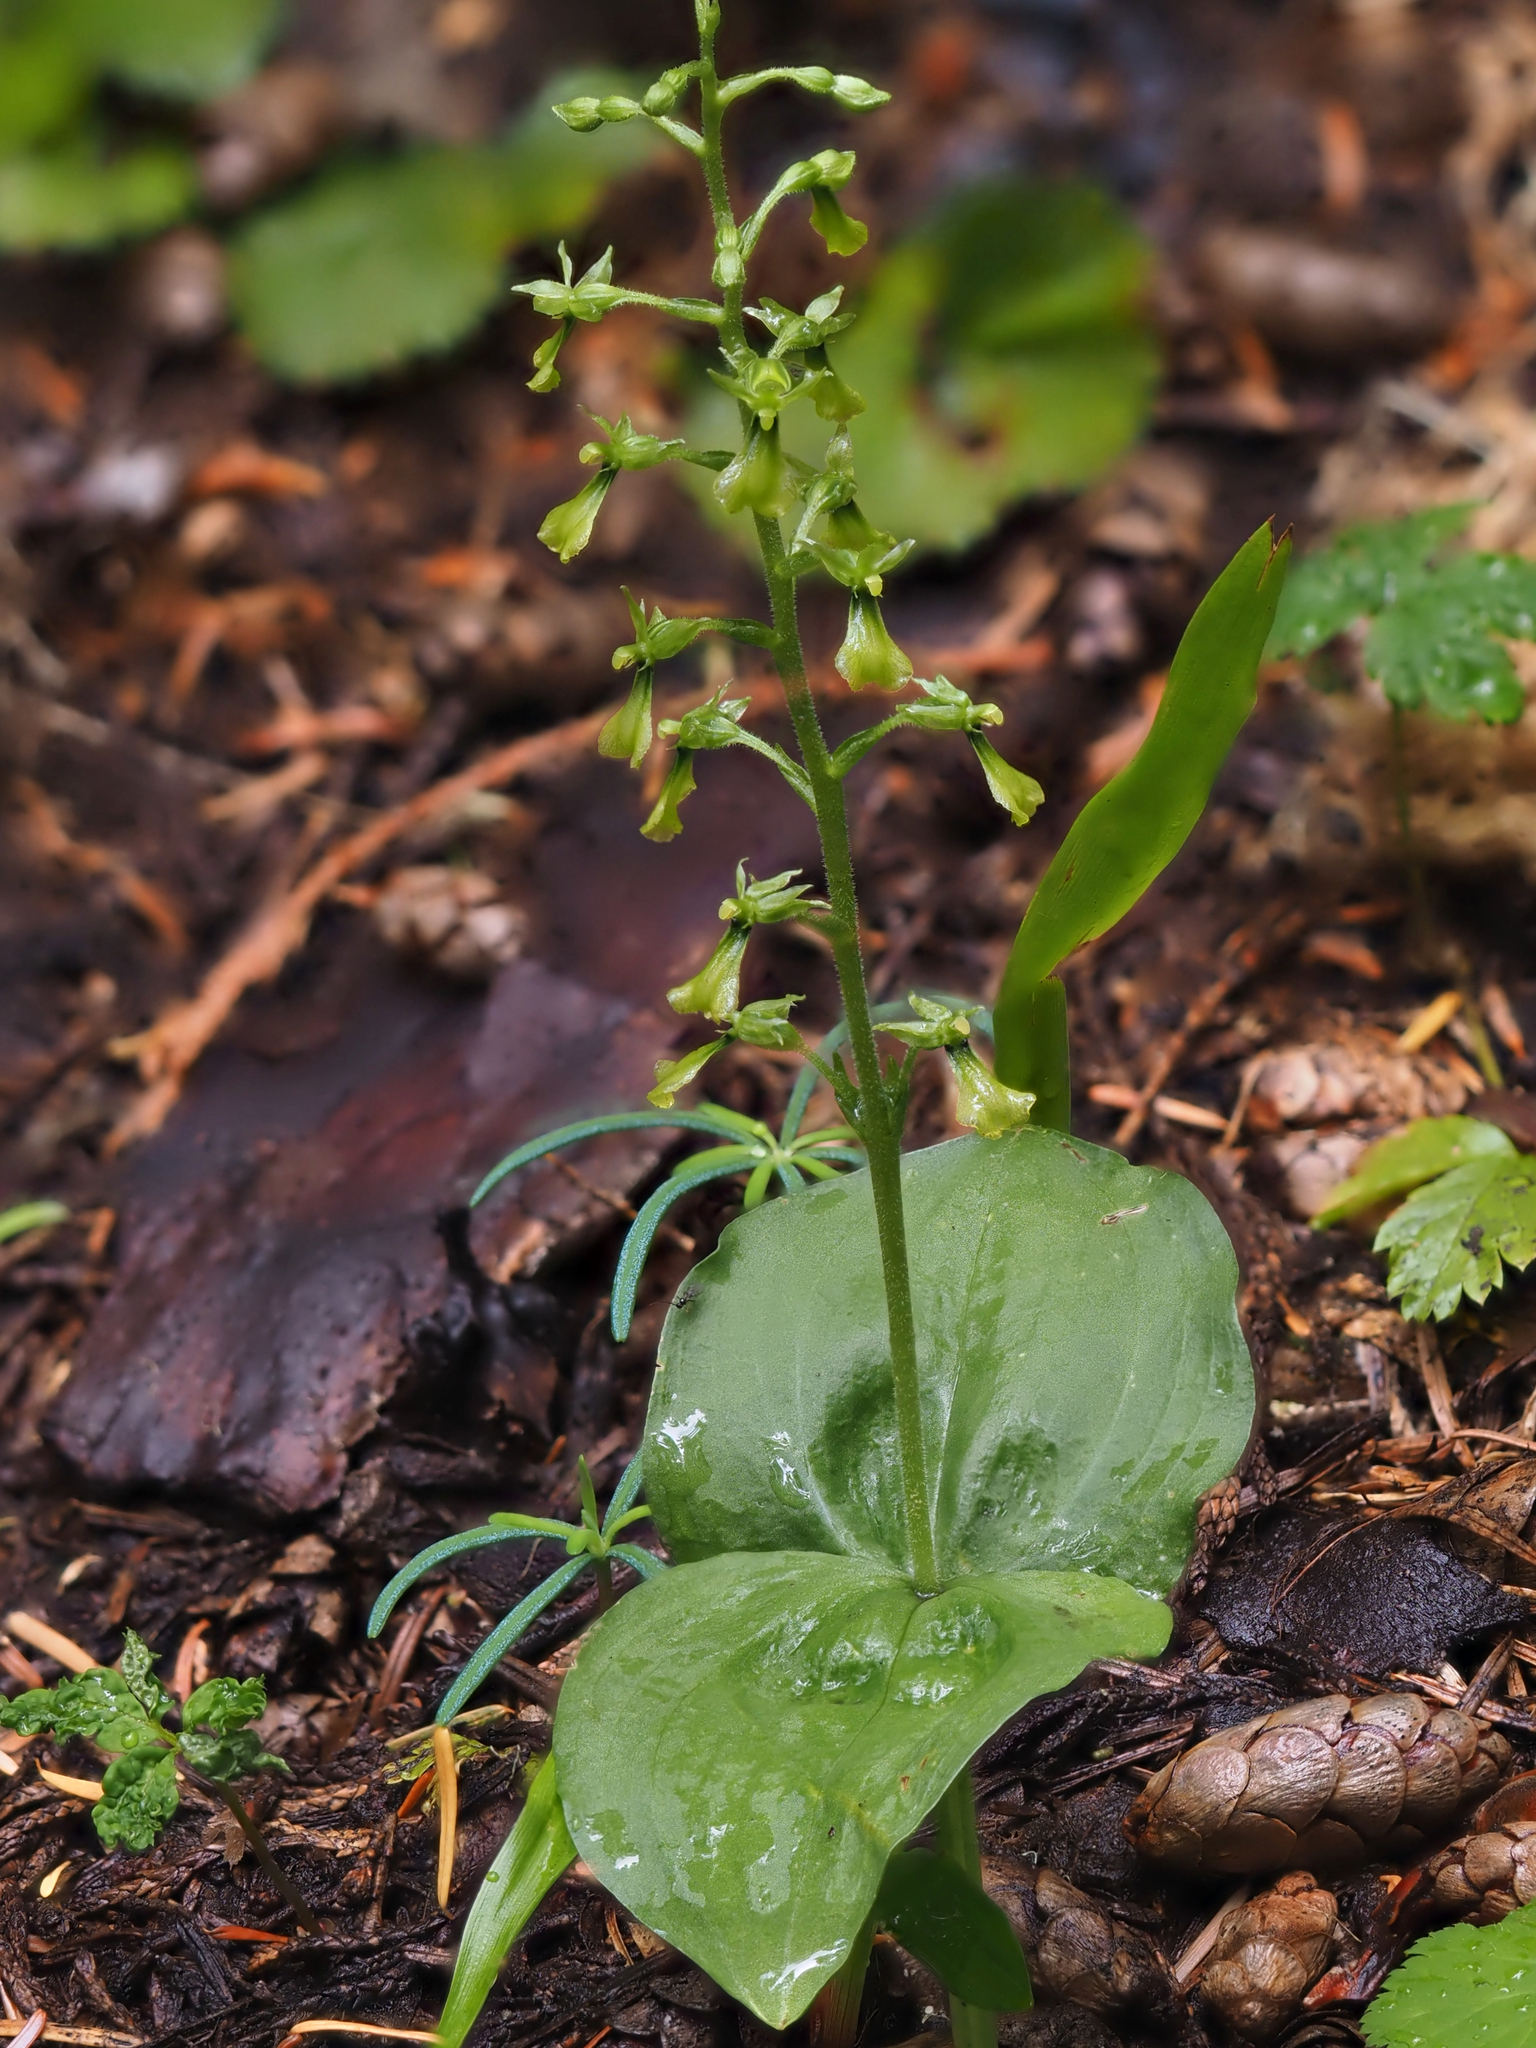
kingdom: Plantae
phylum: Tracheophyta
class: Liliopsida
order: Asparagales
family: Orchidaceae
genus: Neottia
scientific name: Neottia banksiana
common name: Northwestern twayblade
